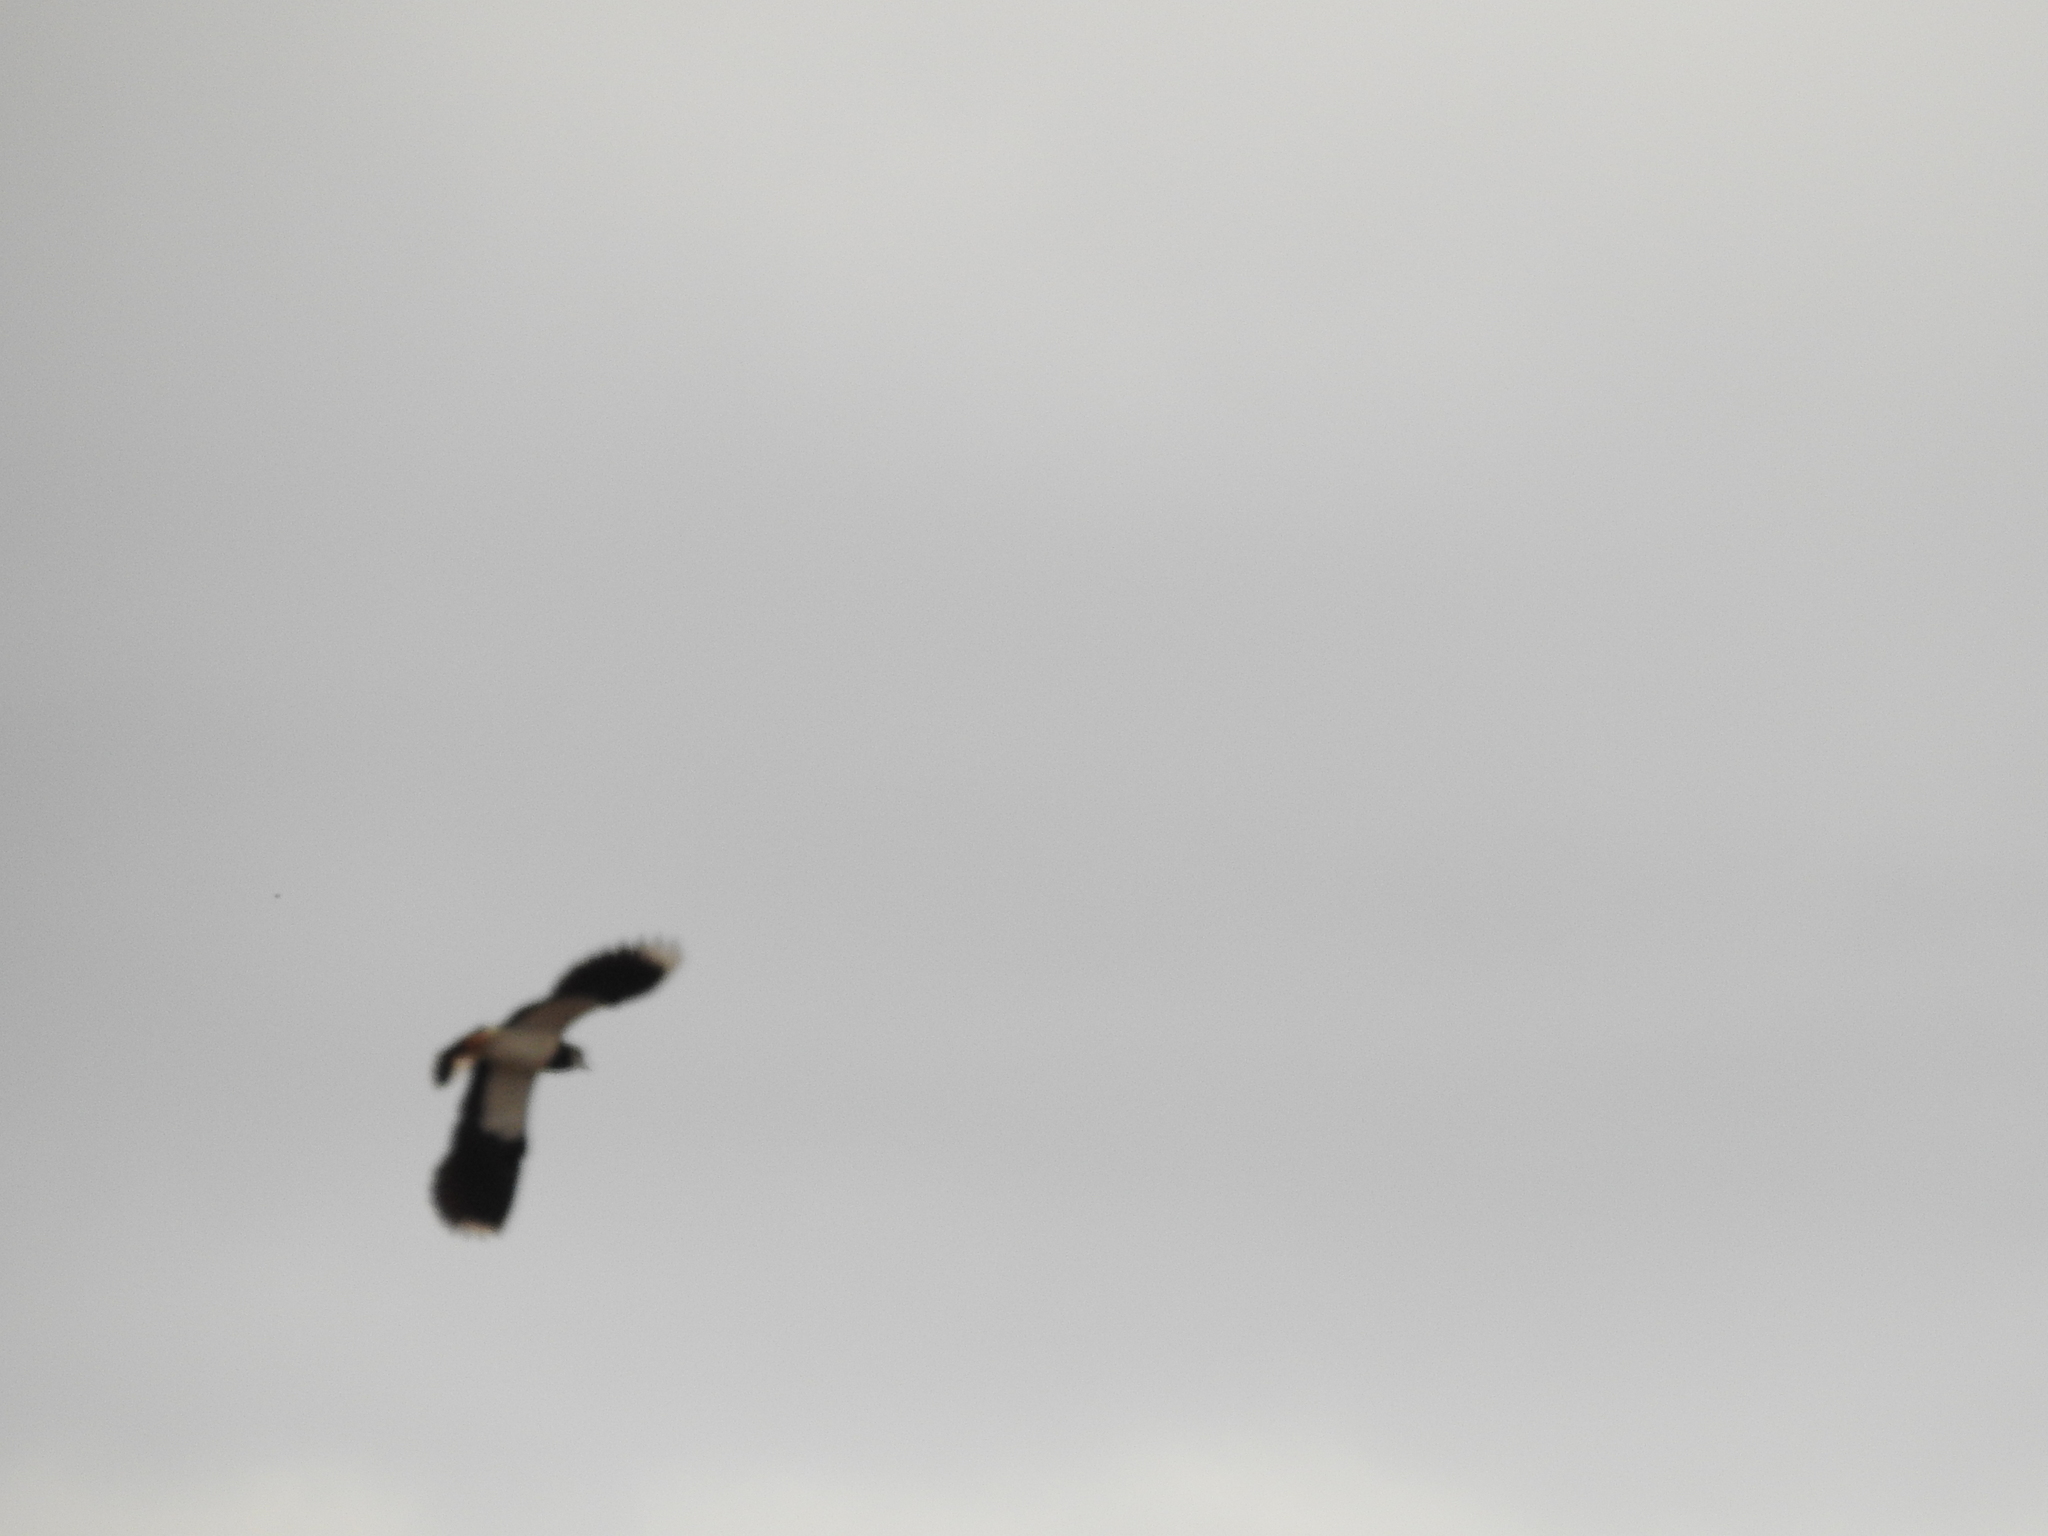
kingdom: Animalia
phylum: Chordata
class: Aves
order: Charadriiformes
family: Charadriidae
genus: Vanellus
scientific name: Vanellus vanellus
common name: Northern lapwing
